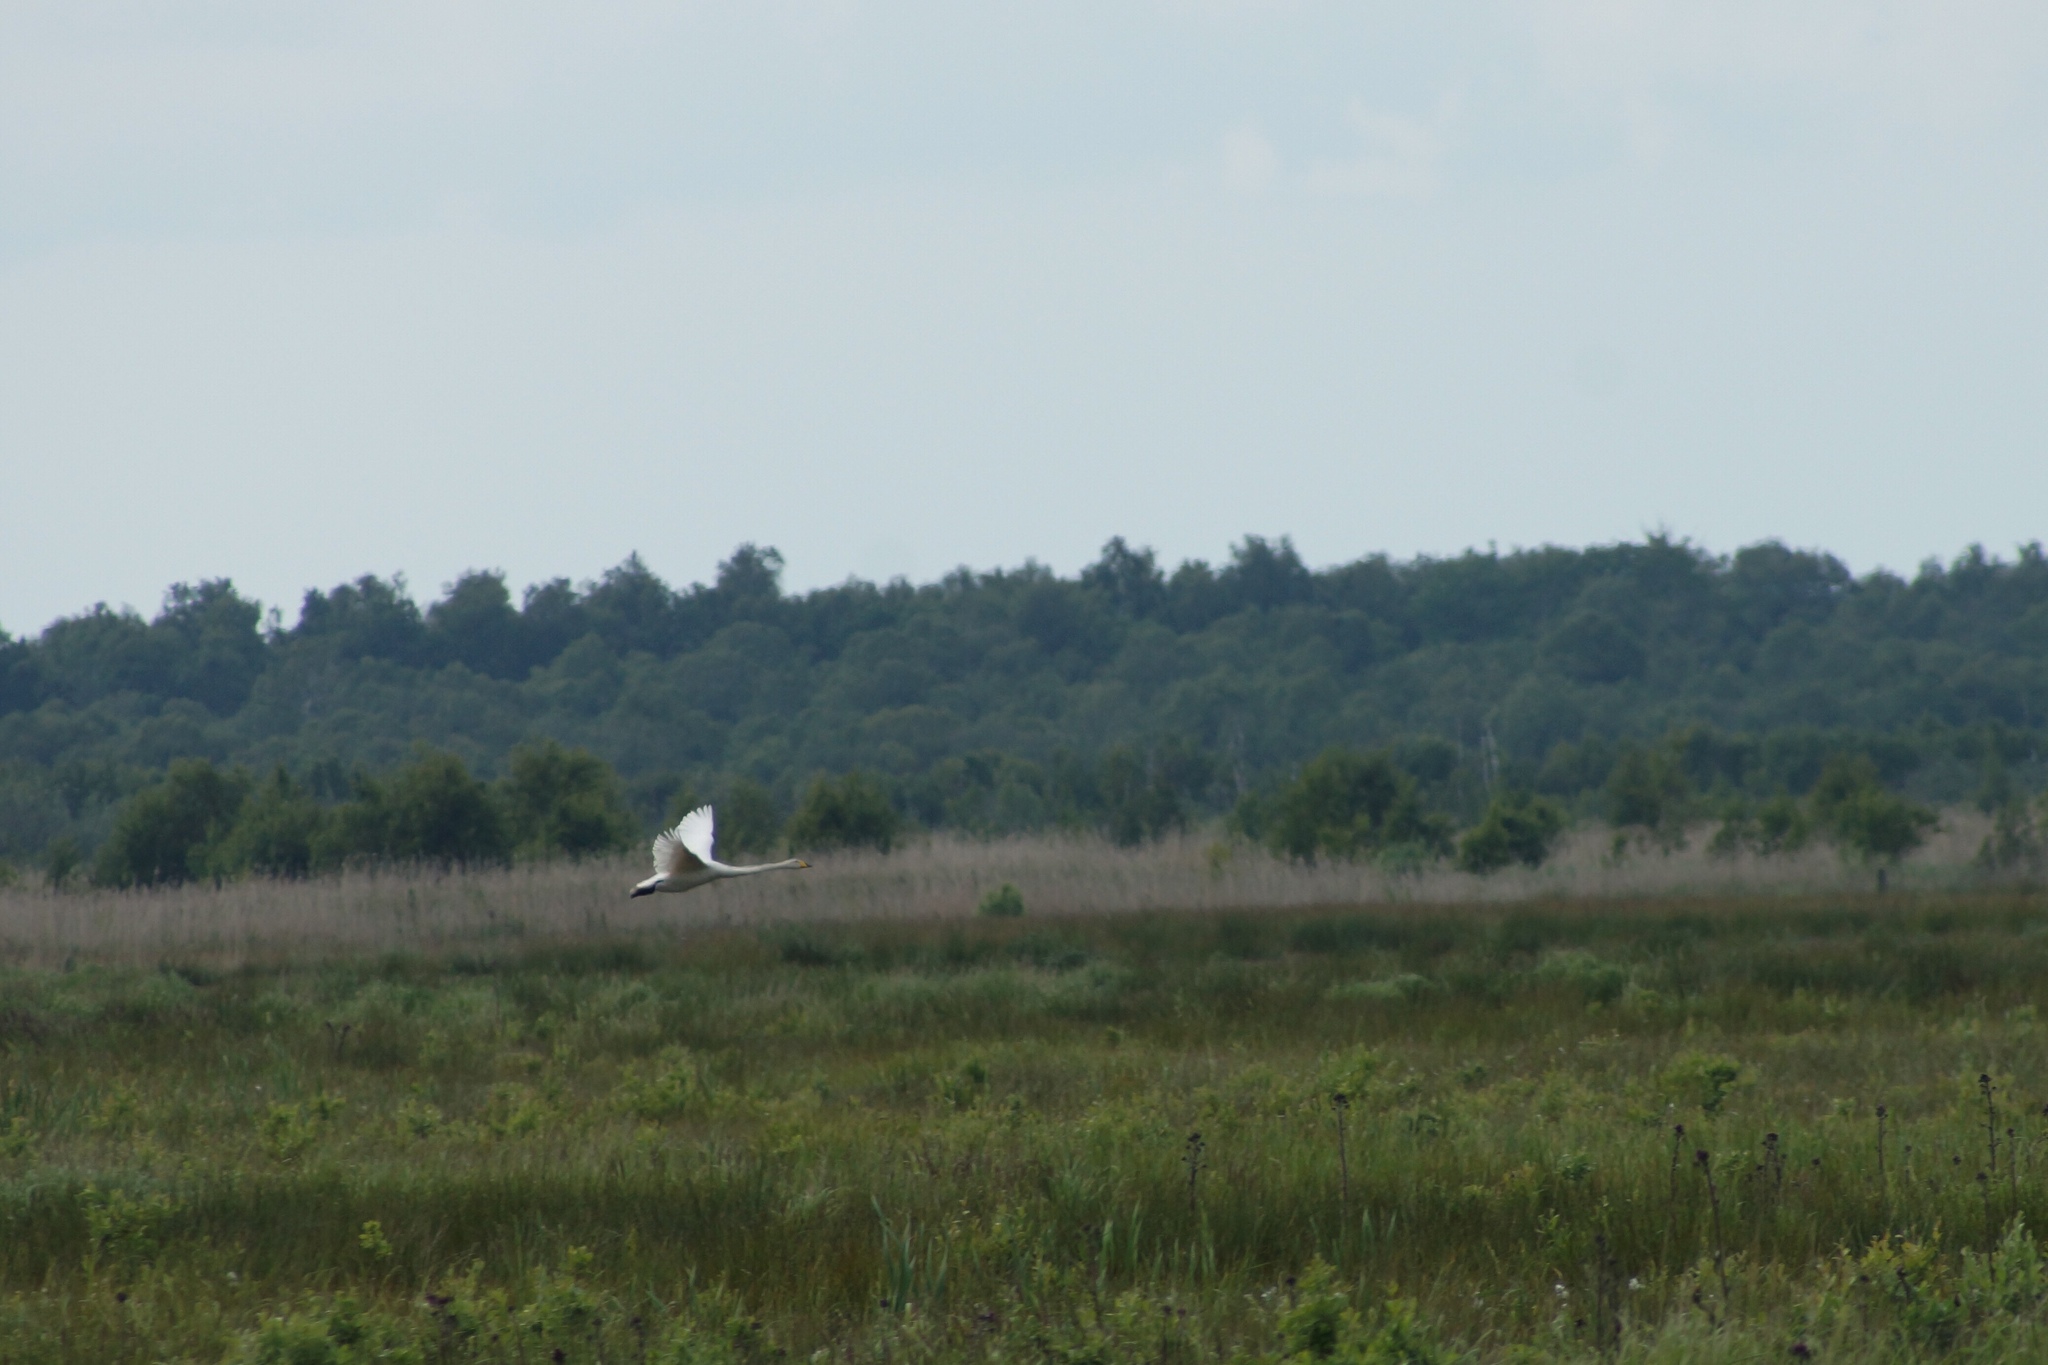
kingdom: Animalia
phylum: Chordata
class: Aves
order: Anseriformes
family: Anatidae
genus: Cygnus
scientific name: Cygnus cygnus
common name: Whooper swan
